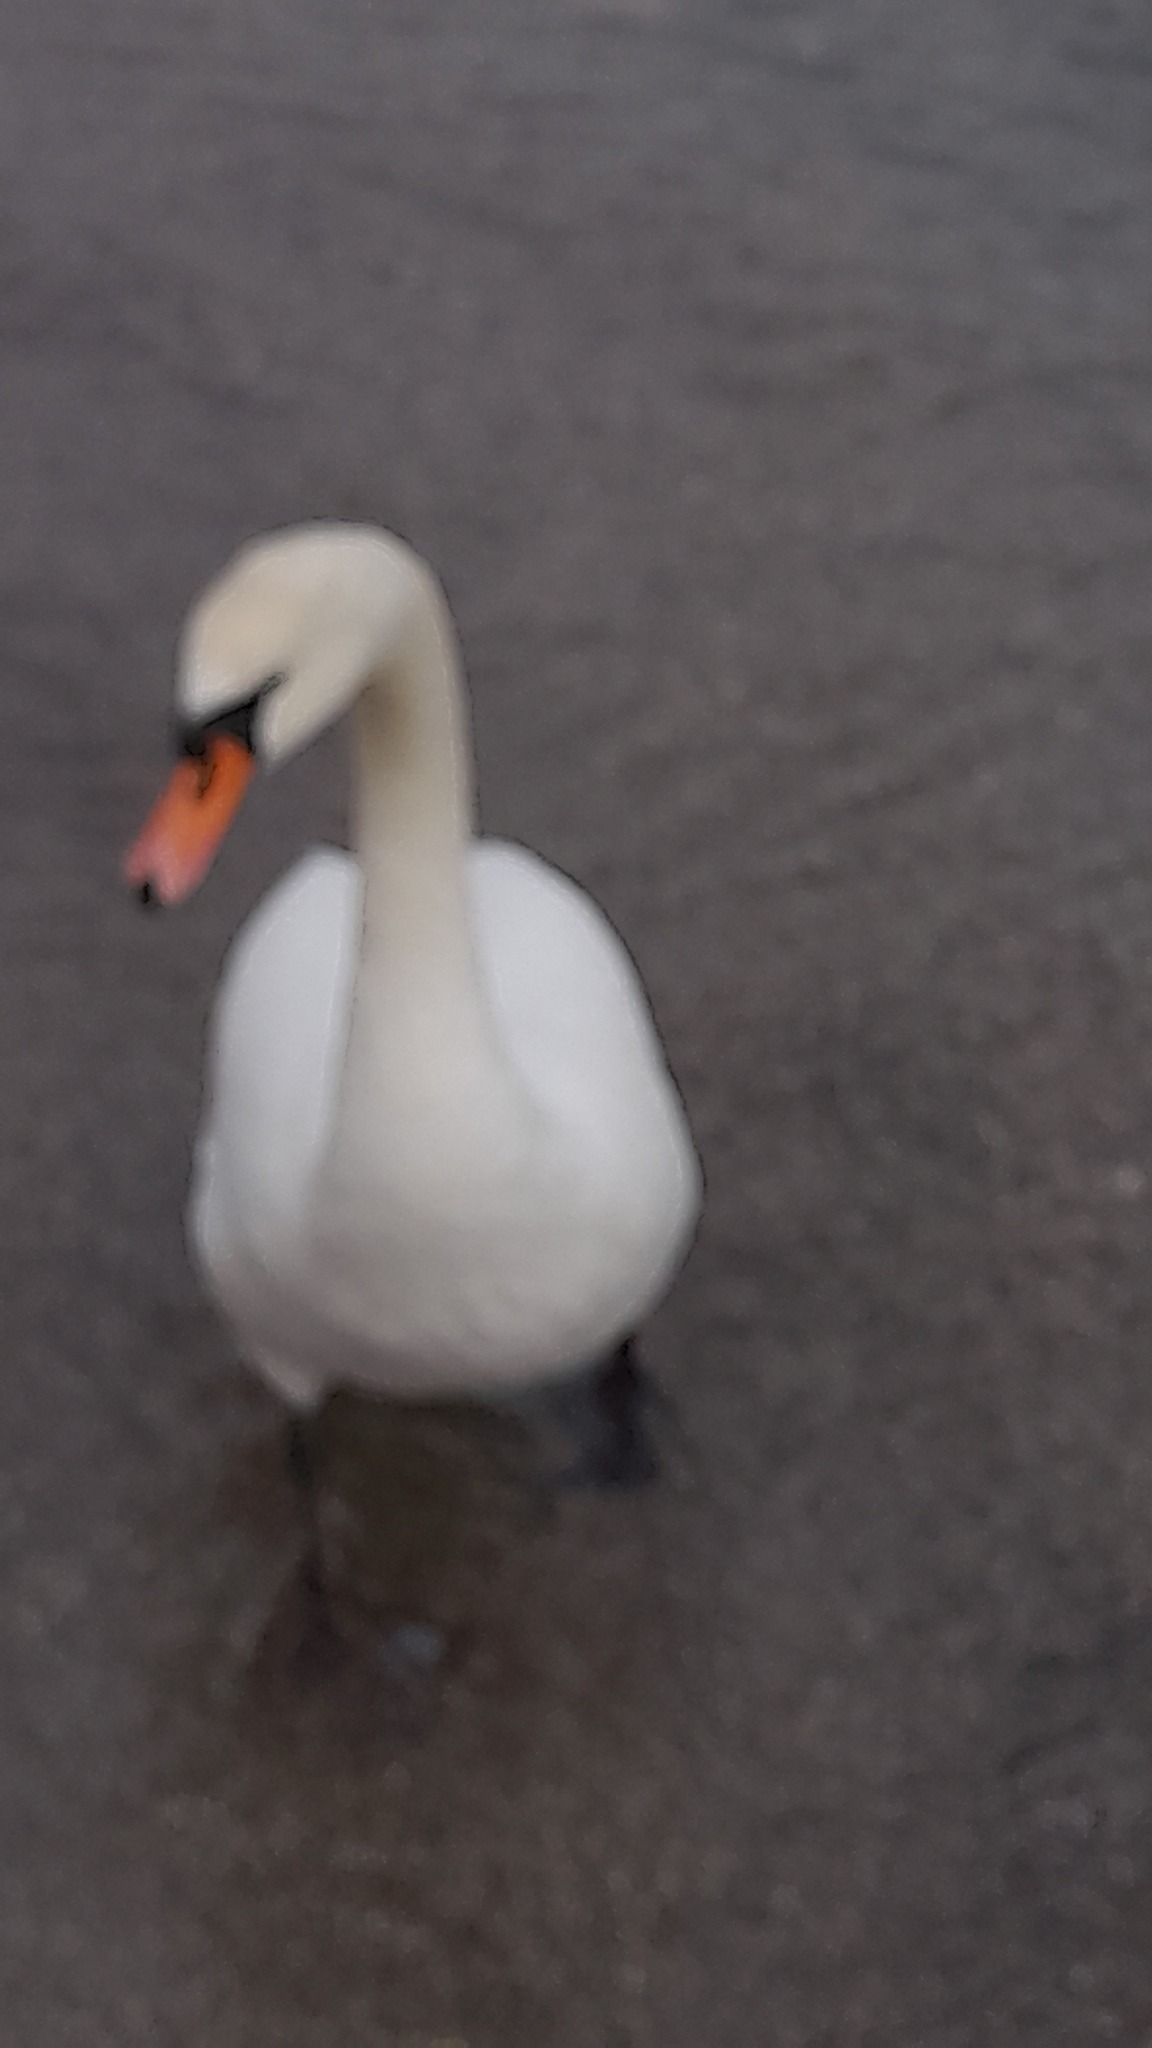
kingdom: Animalia
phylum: Chordata
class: Aves
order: Anseriformes
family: Anatidae
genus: Cygnus
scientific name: Cygnus olor
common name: Mute swan
